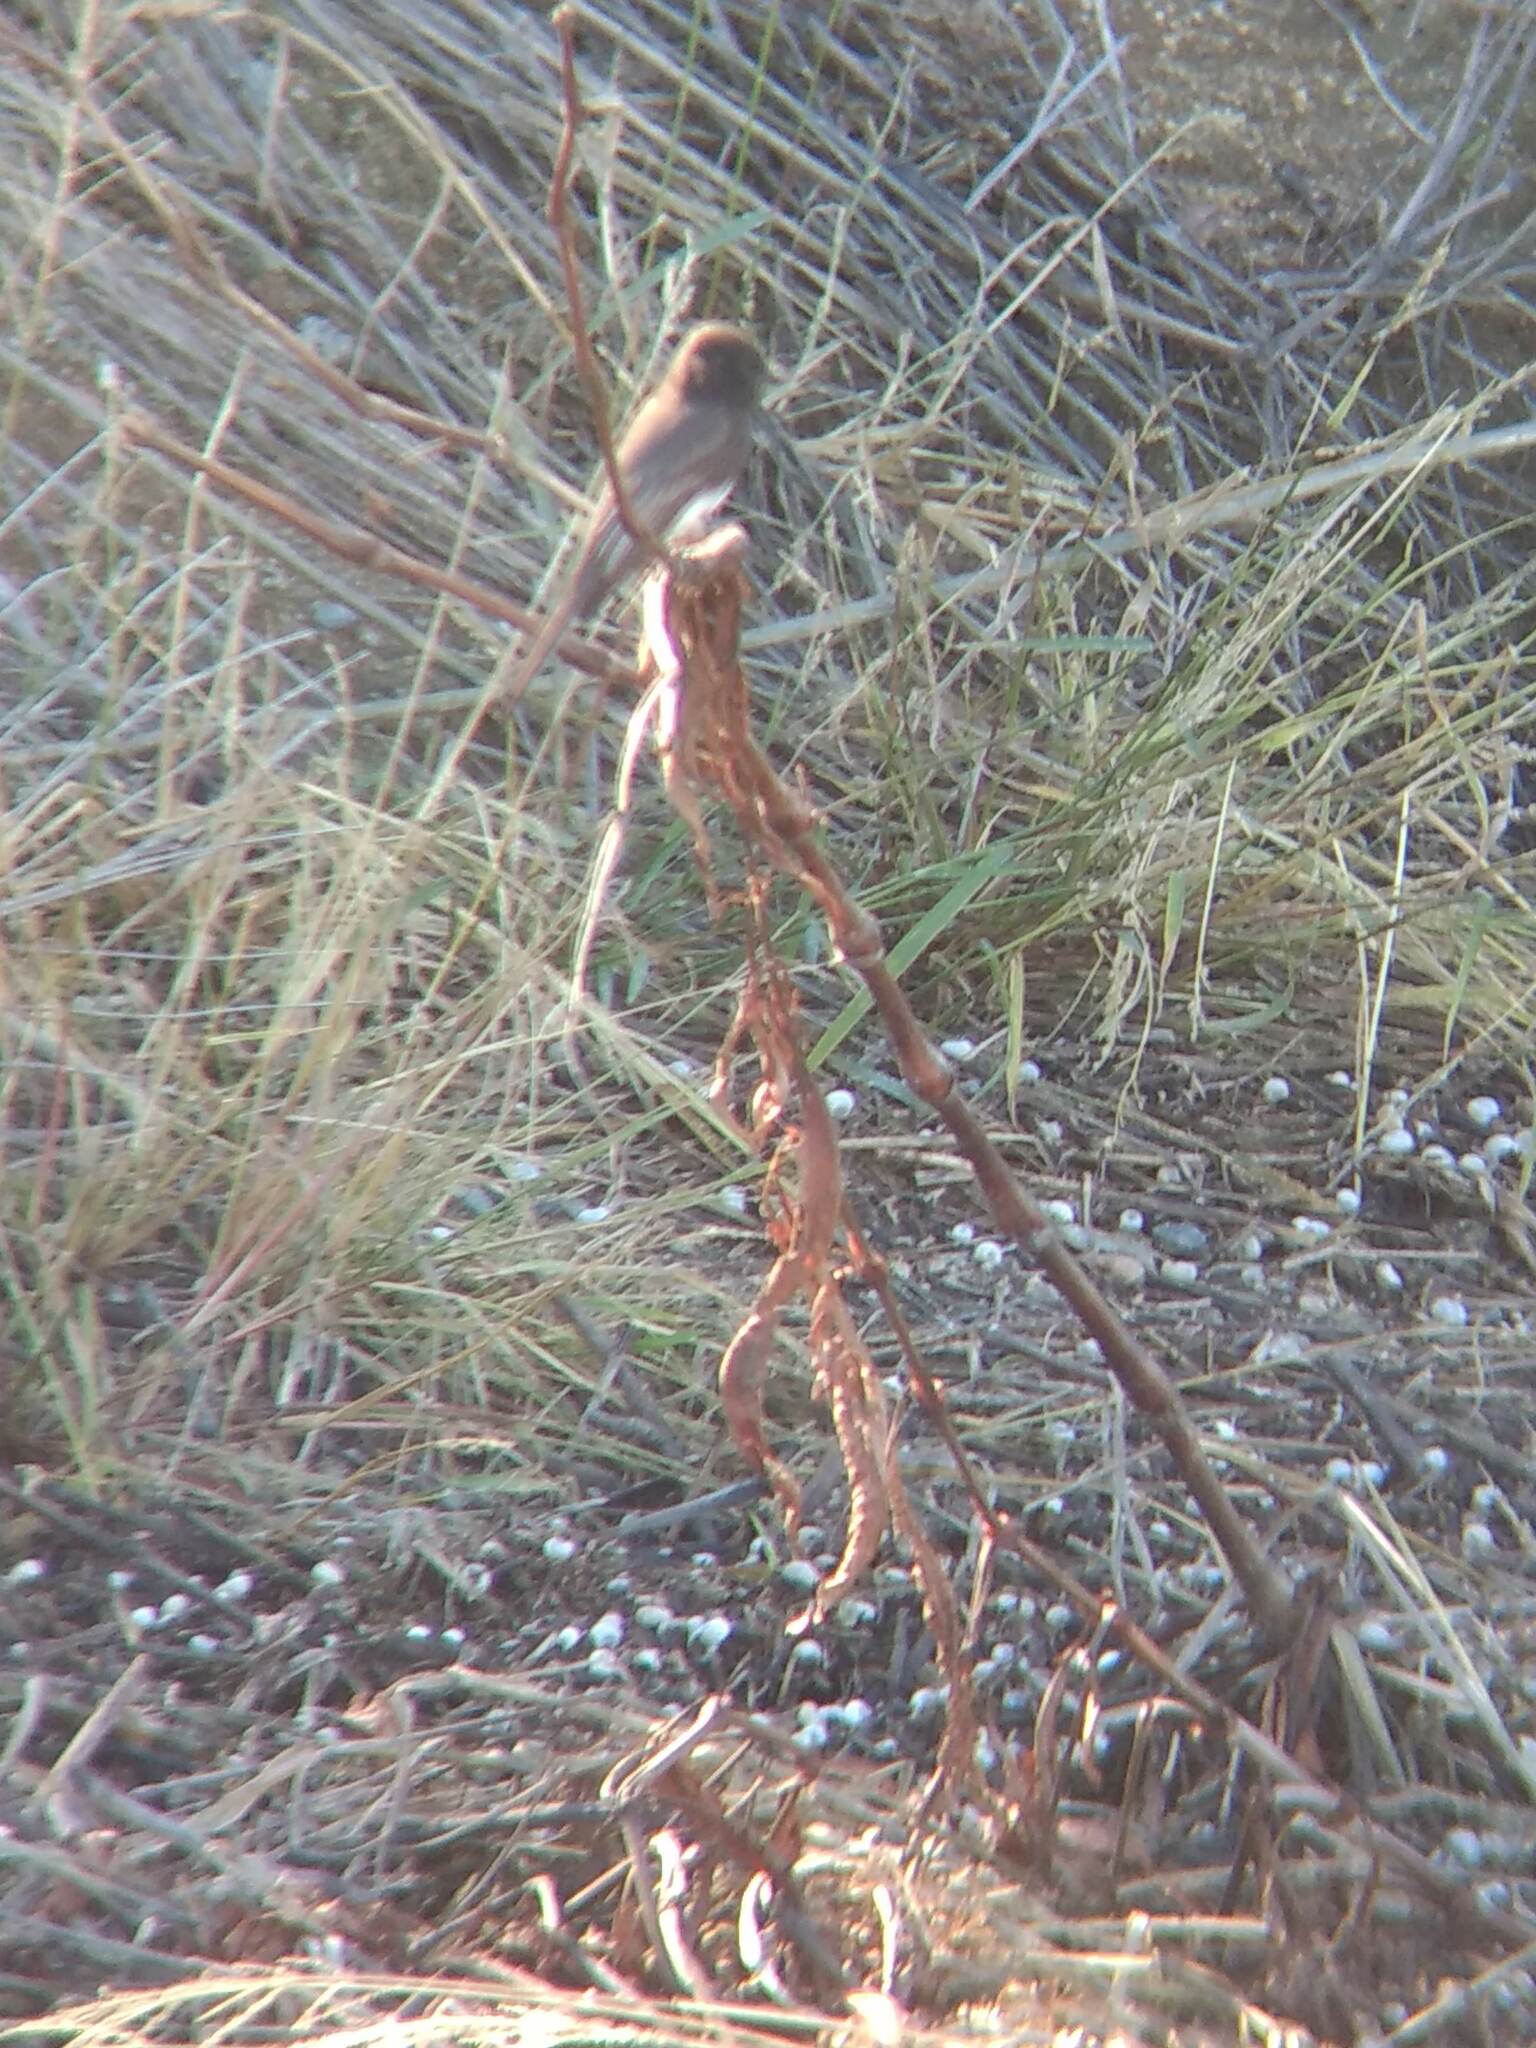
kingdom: Animalia
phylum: Chordata
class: Aves
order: Passeriformes
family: Tyrannidae
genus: Sayornis
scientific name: Sayornis nigricans
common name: Black phoebe
